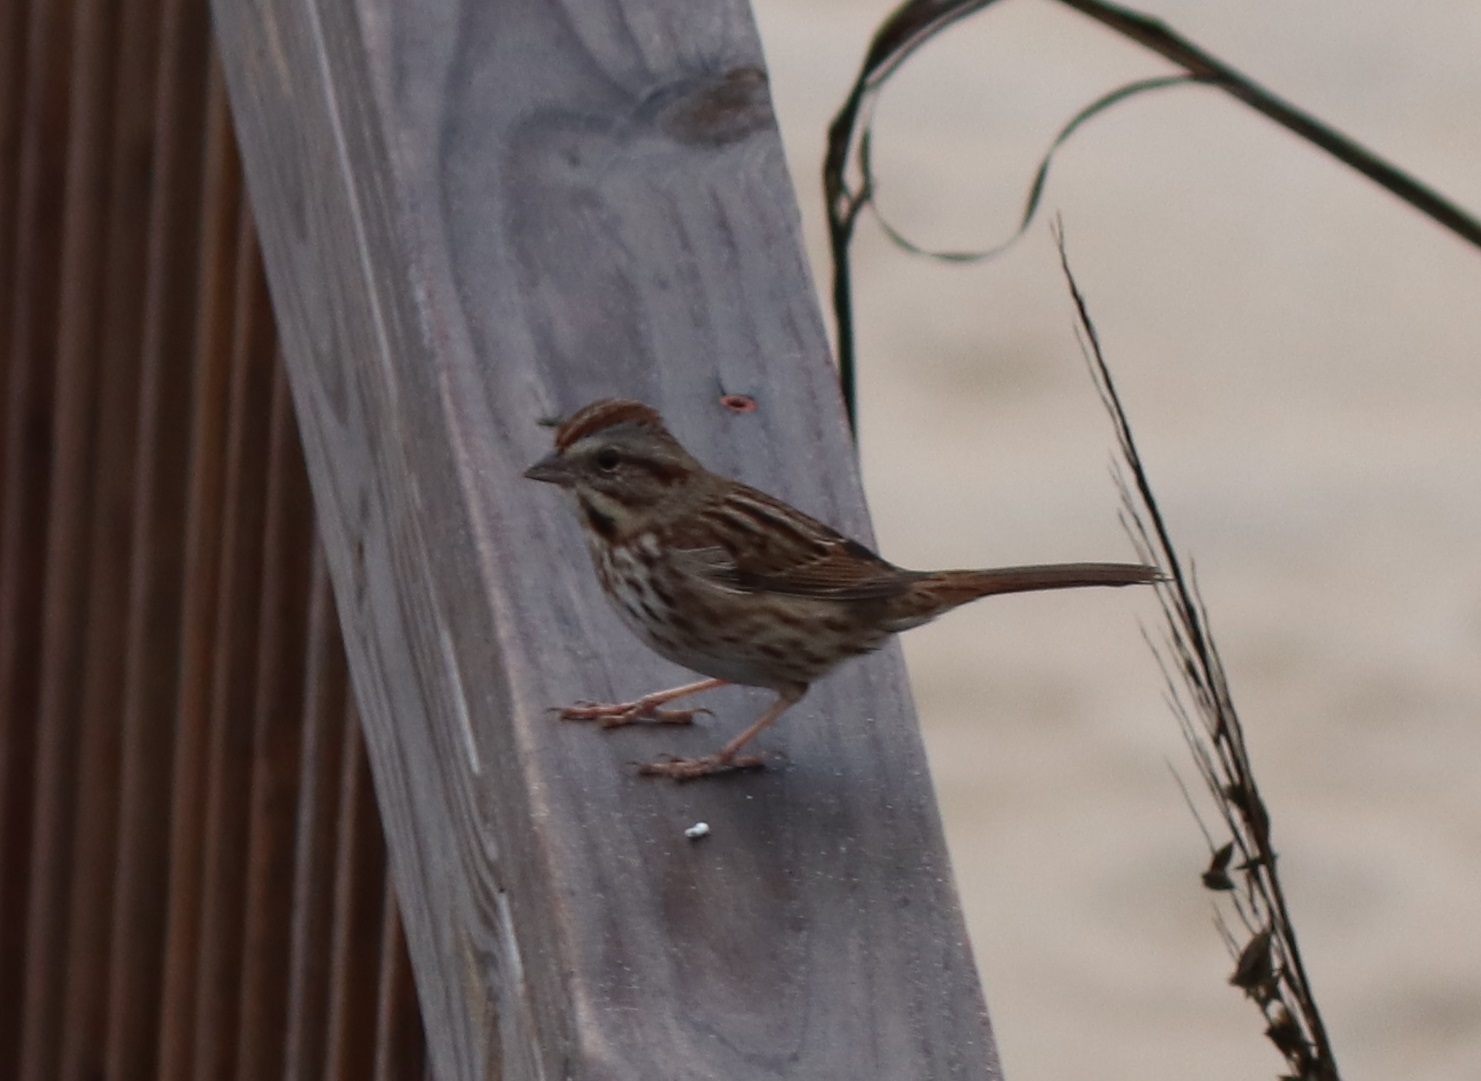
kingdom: Animalia
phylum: Chordata
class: Aves
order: Passeriformes
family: Passerellidae
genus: Melospiza
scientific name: Melospiza melodia
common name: Song sparrow
